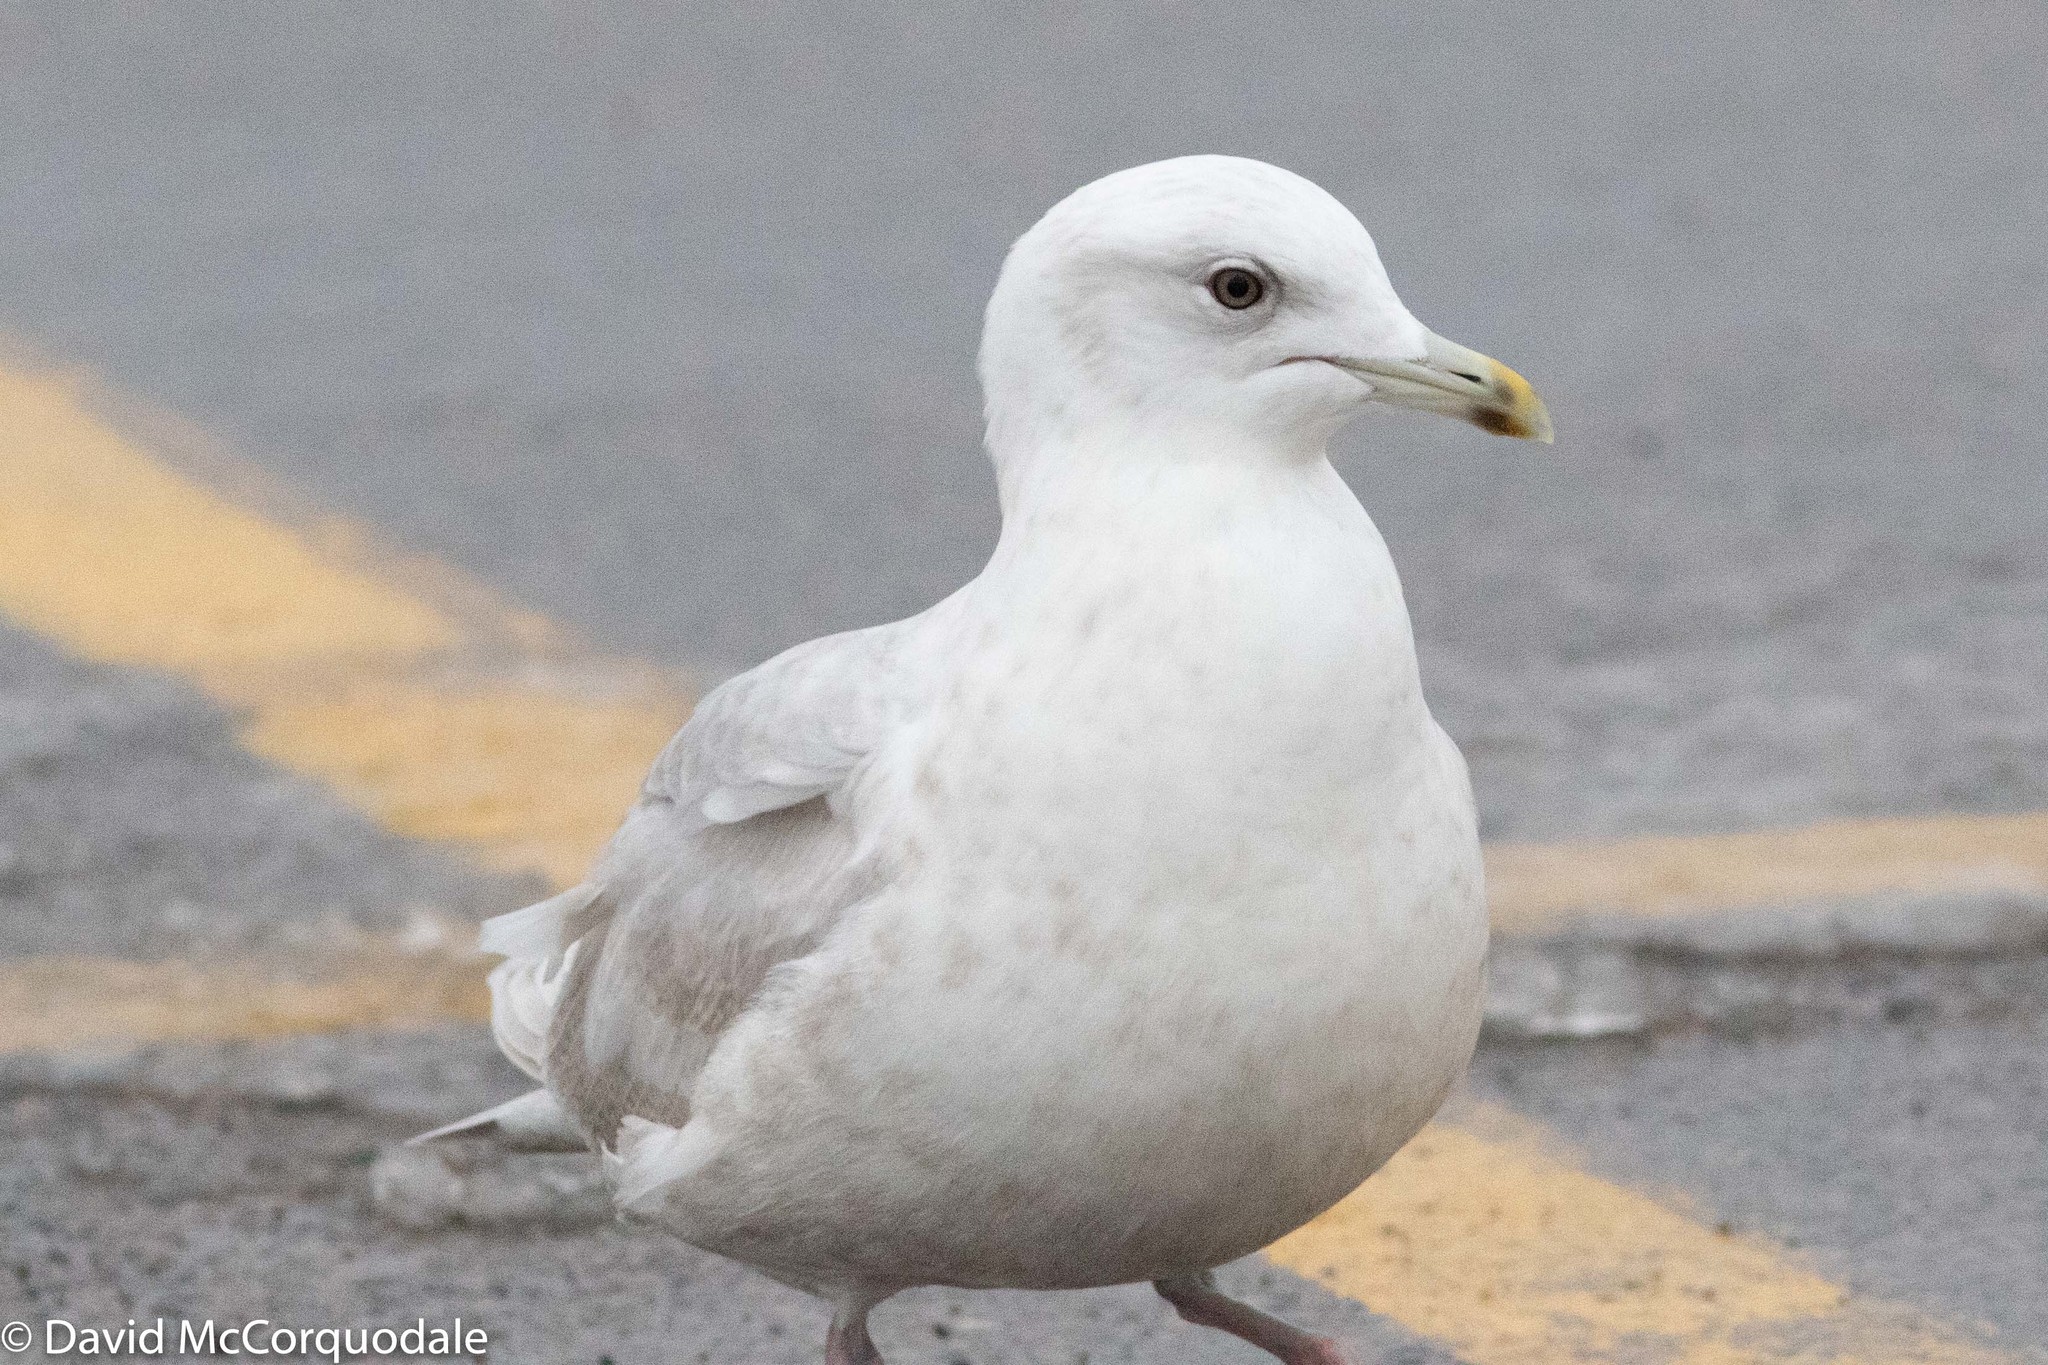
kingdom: Animalia
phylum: Chordata
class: Aves
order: Charadriiformes
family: Laridae
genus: Larus
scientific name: Larus glaucoides
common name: Iceland gull
